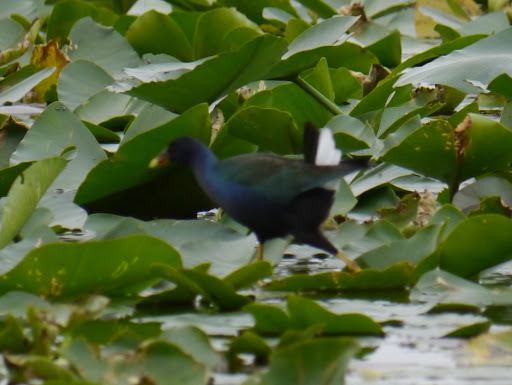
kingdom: Animalia
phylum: Chordata
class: Aves
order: Gruiformes
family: Rallidae
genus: Porphyrio
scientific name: Porphyrio martinica
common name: Purple gallinule
